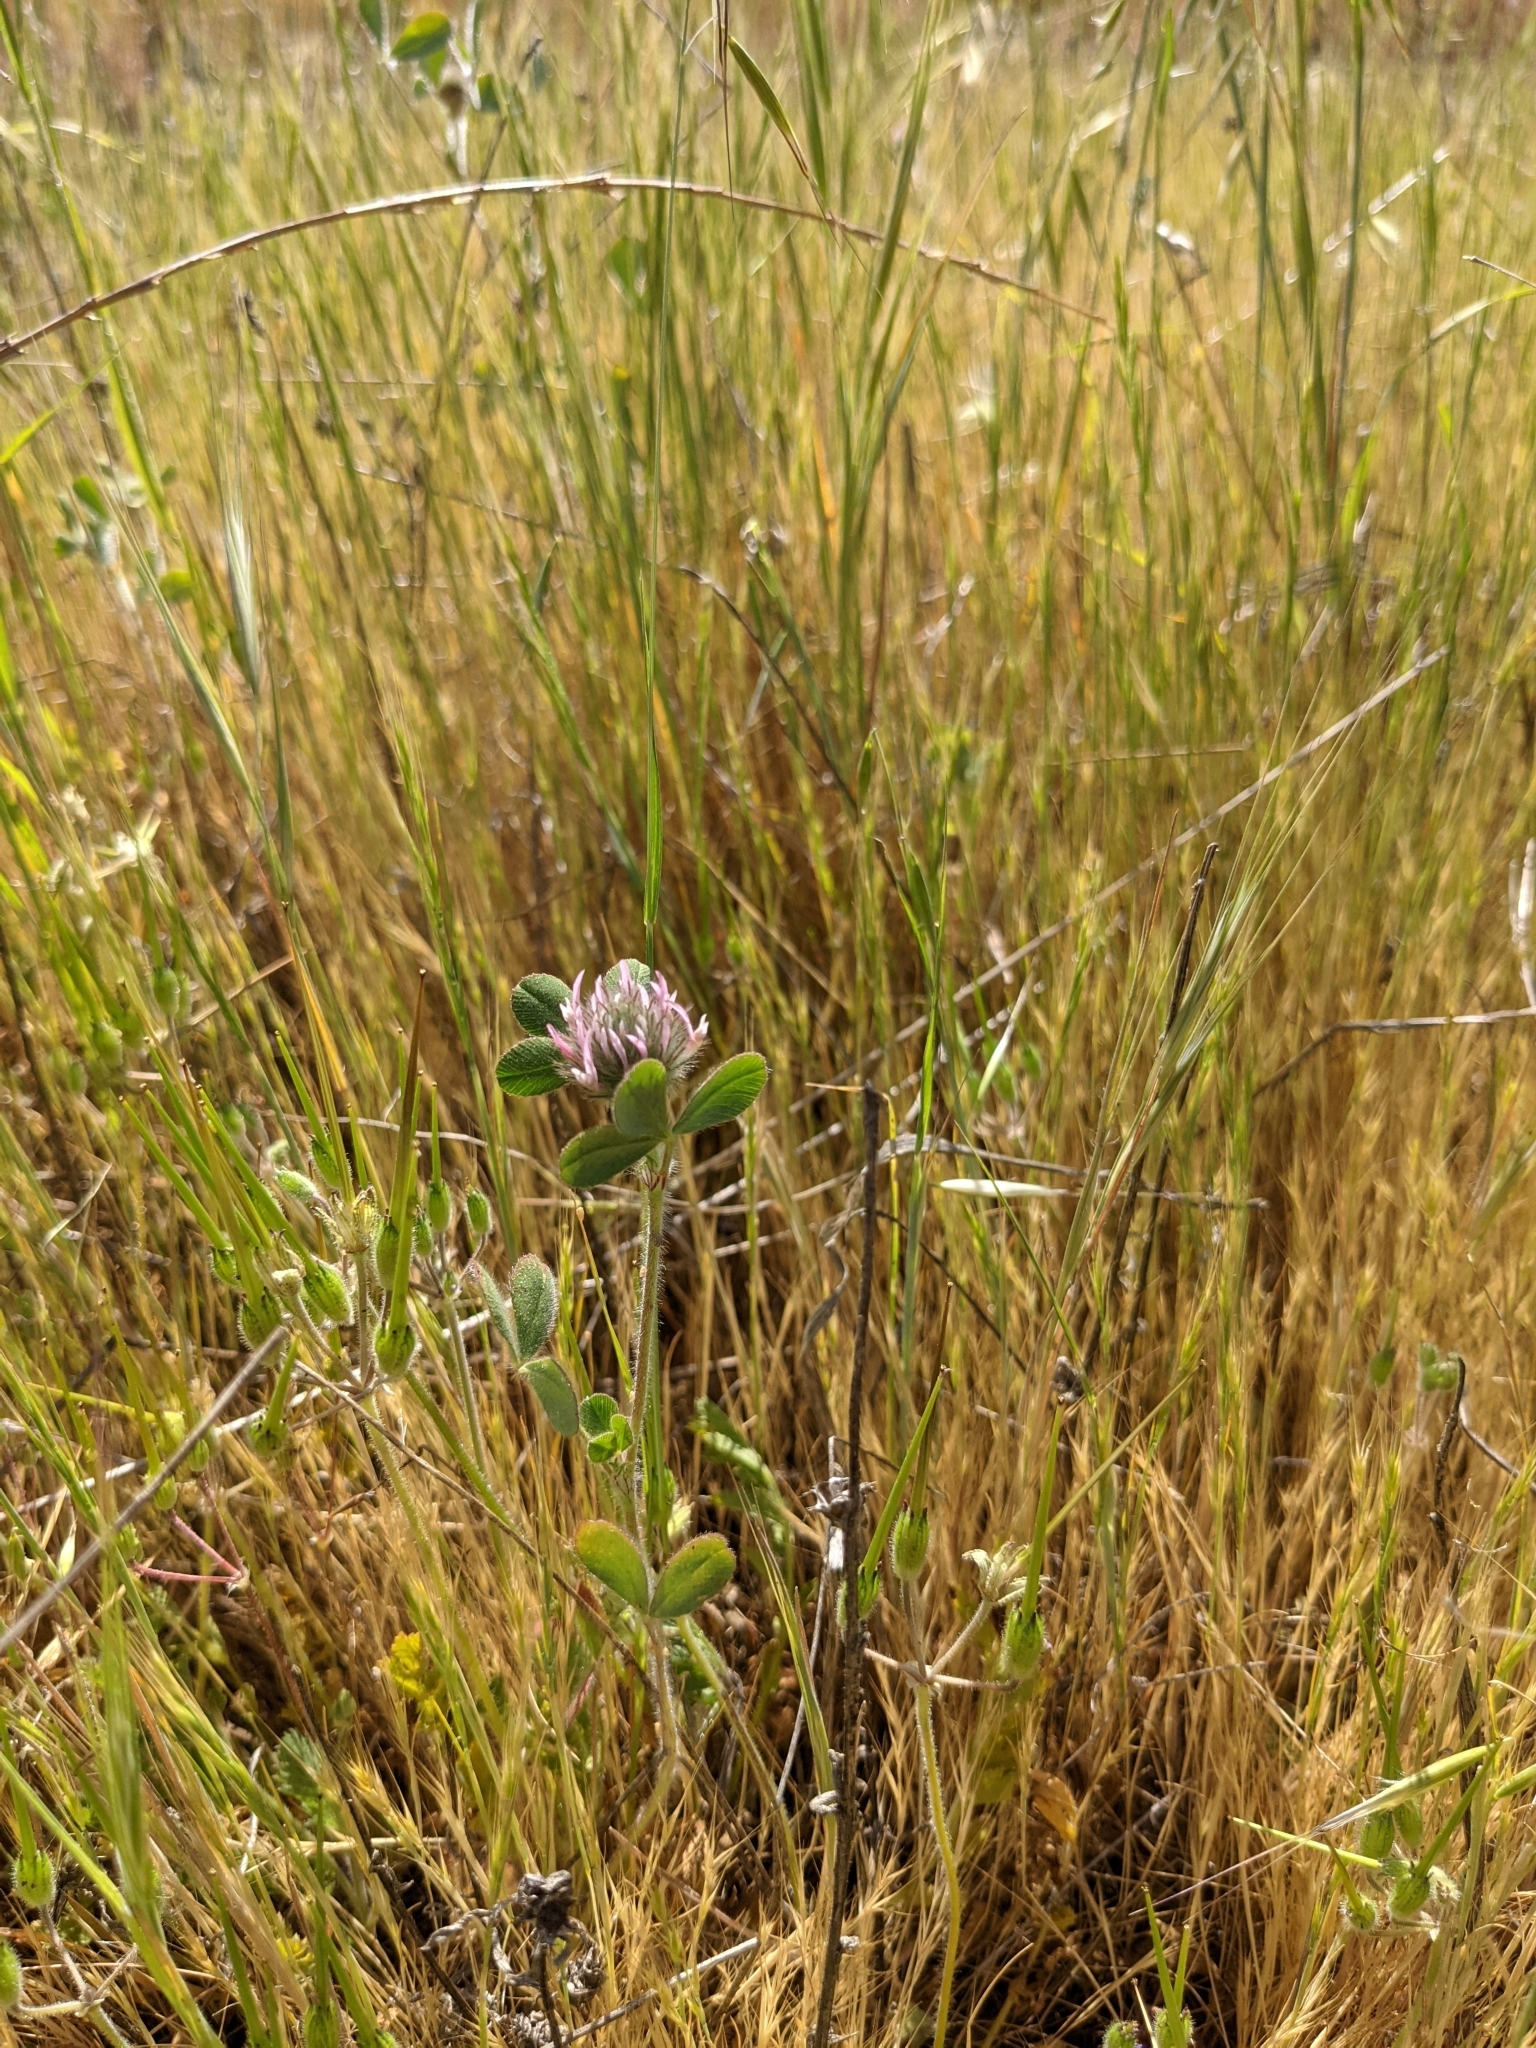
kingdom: Plantae
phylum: Tracheophyta
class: Magnoliopsida
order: Fabales
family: Fabaceae
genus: Trifolium
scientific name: Trifolium hirtum
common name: Rose clover
